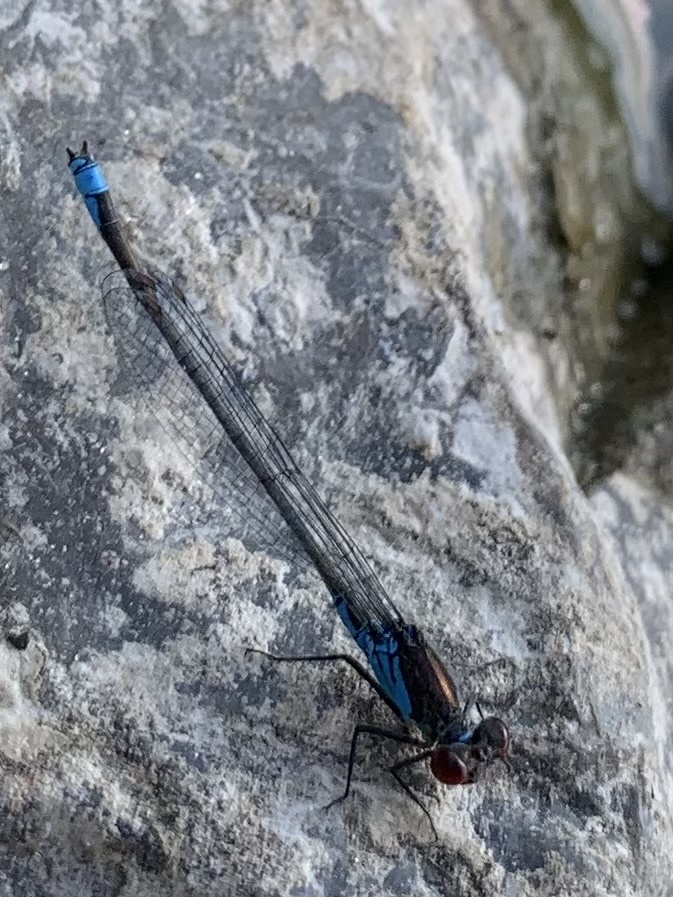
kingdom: Animalia
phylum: Arthropoda
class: Insecta
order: Odonata
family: Coenagrionidae
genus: Erythromma
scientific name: Erythromma viridulum
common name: Small red-eyed damselfly
